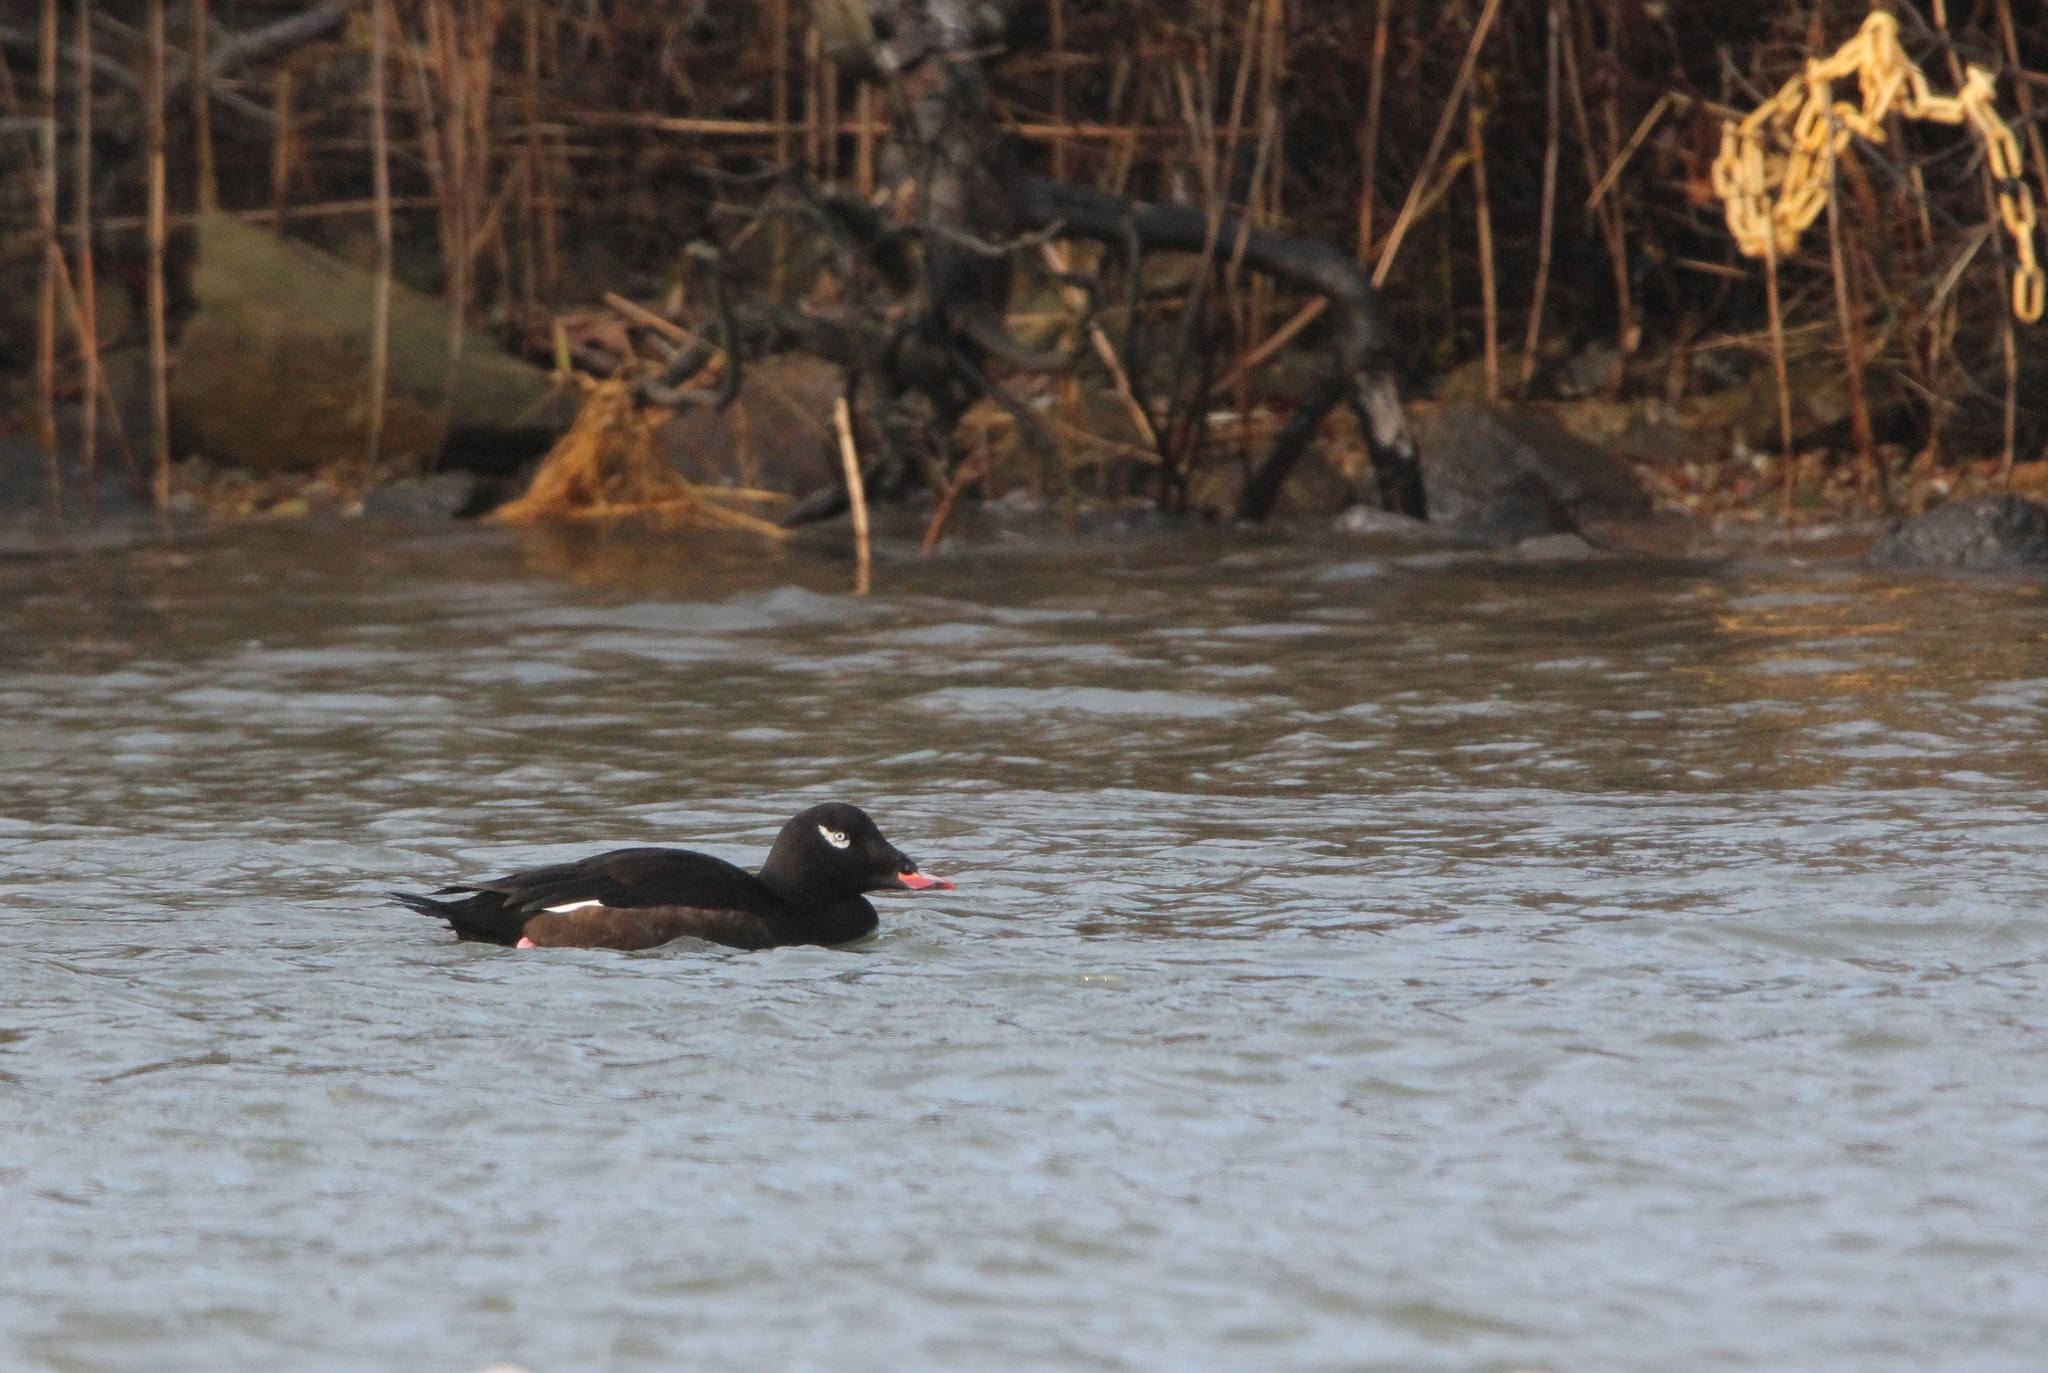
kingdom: Animalia
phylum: Chordata
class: Aves
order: Anseriformes
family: Anatidae
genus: Melanitta
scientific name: Melanitta deglandi
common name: White-winged scoter
